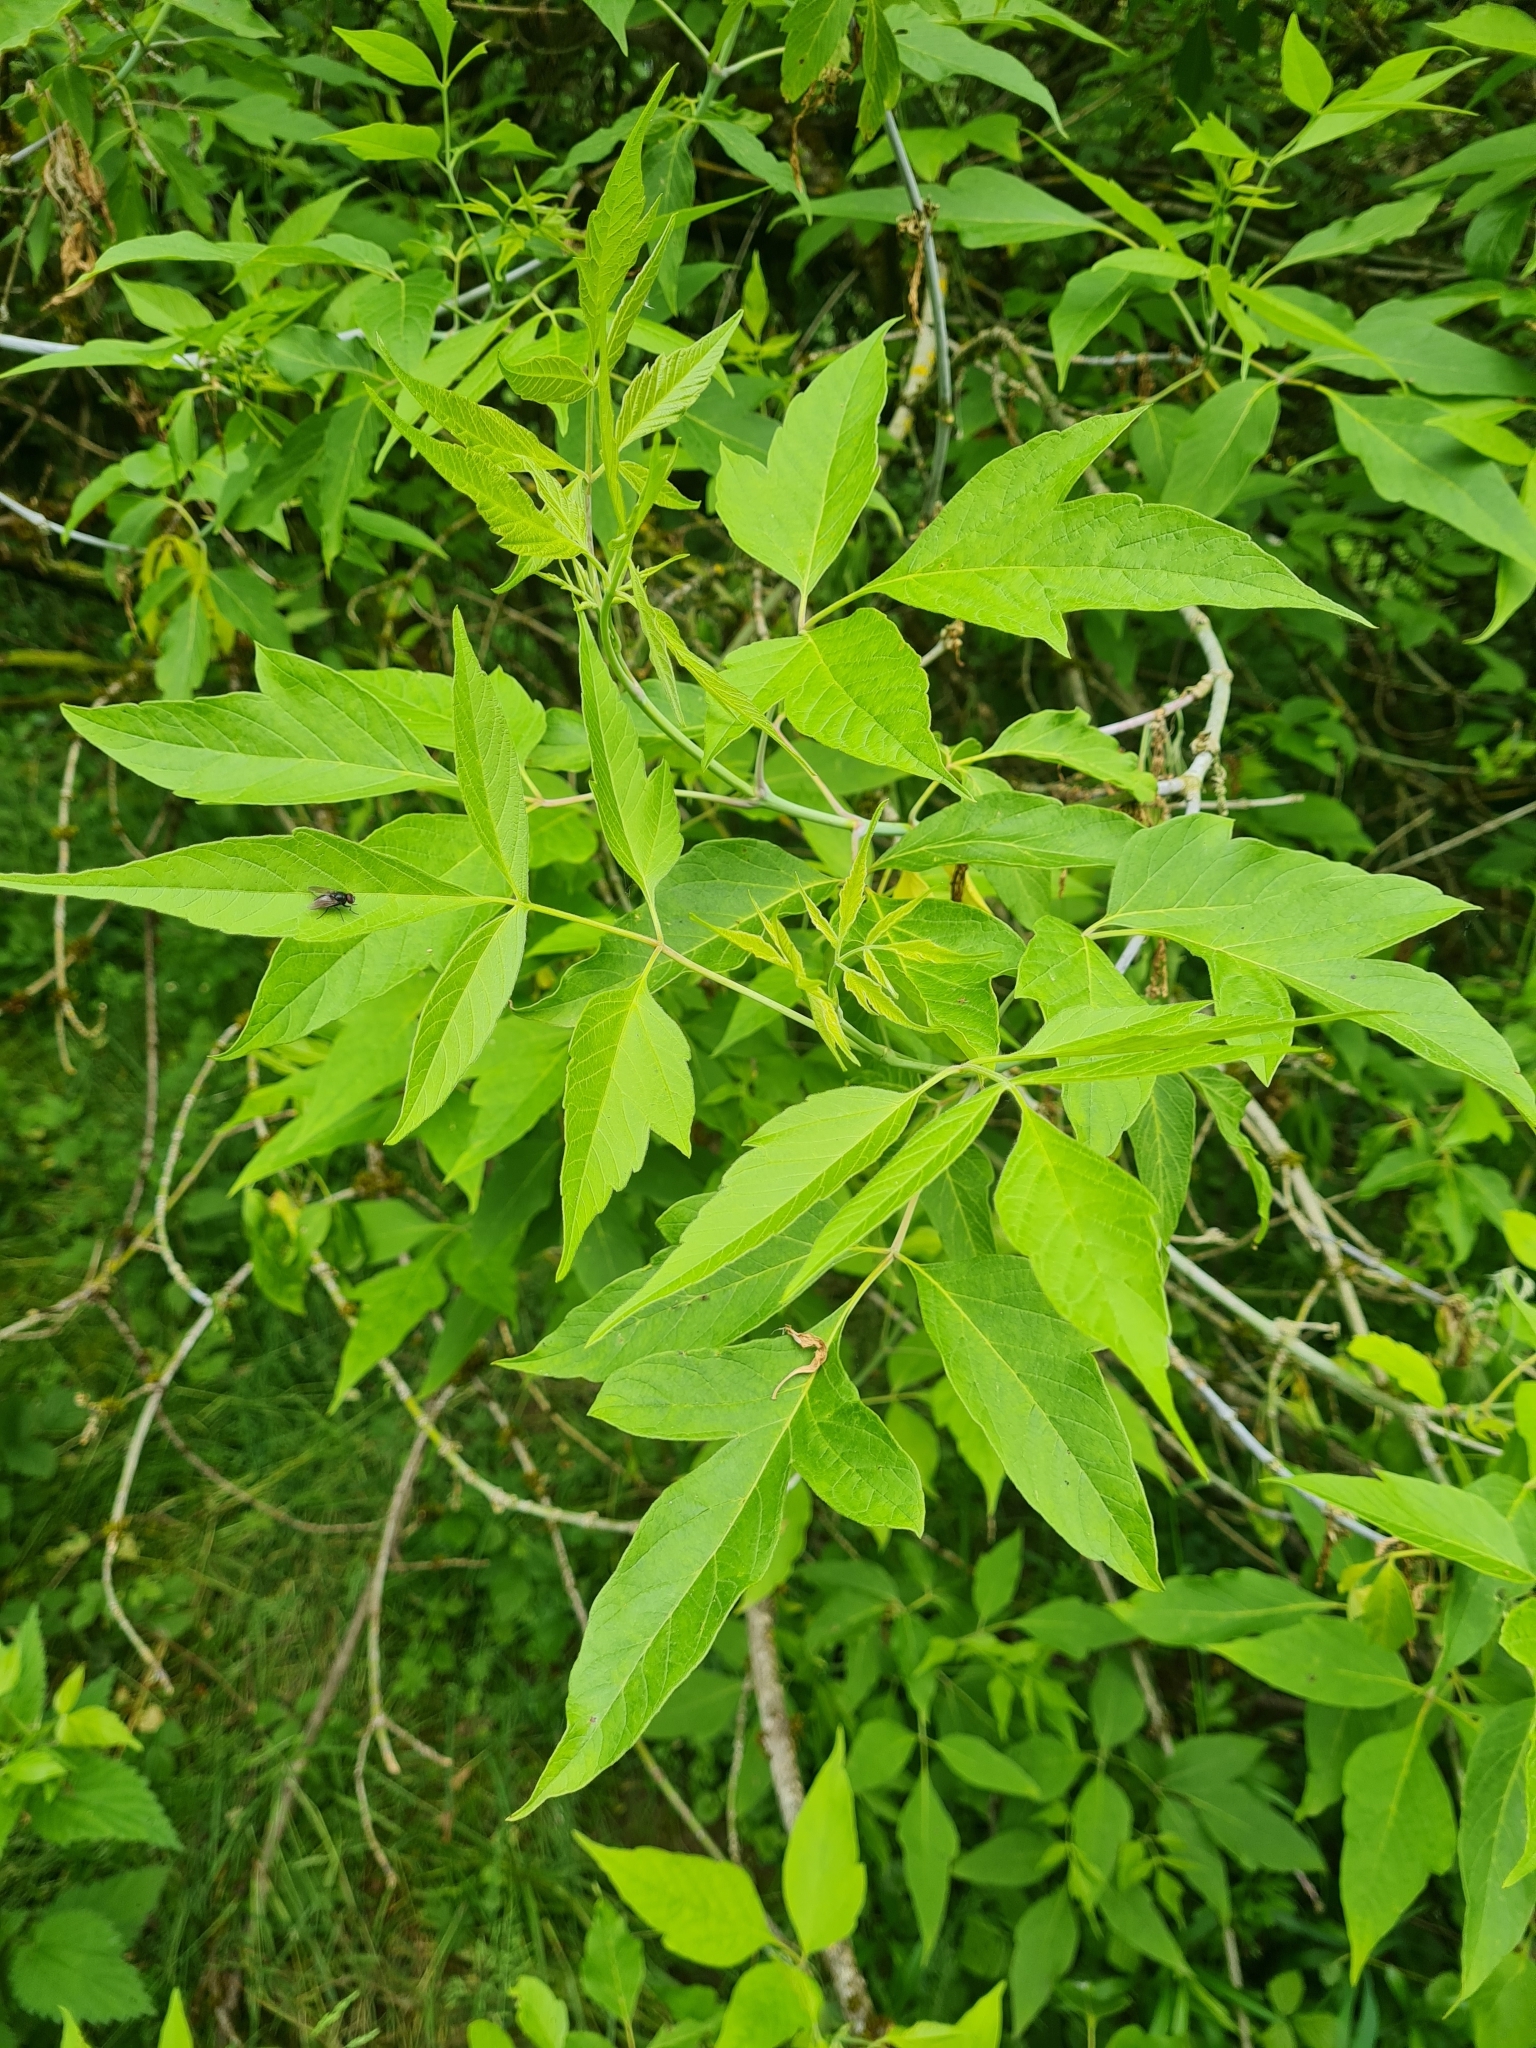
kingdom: Plantae
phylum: Tracheophyta
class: Magnoliopsida
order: Sapindales
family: Sapindaceae
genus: Acer
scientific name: Acer negundo
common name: Ashleaf maple
